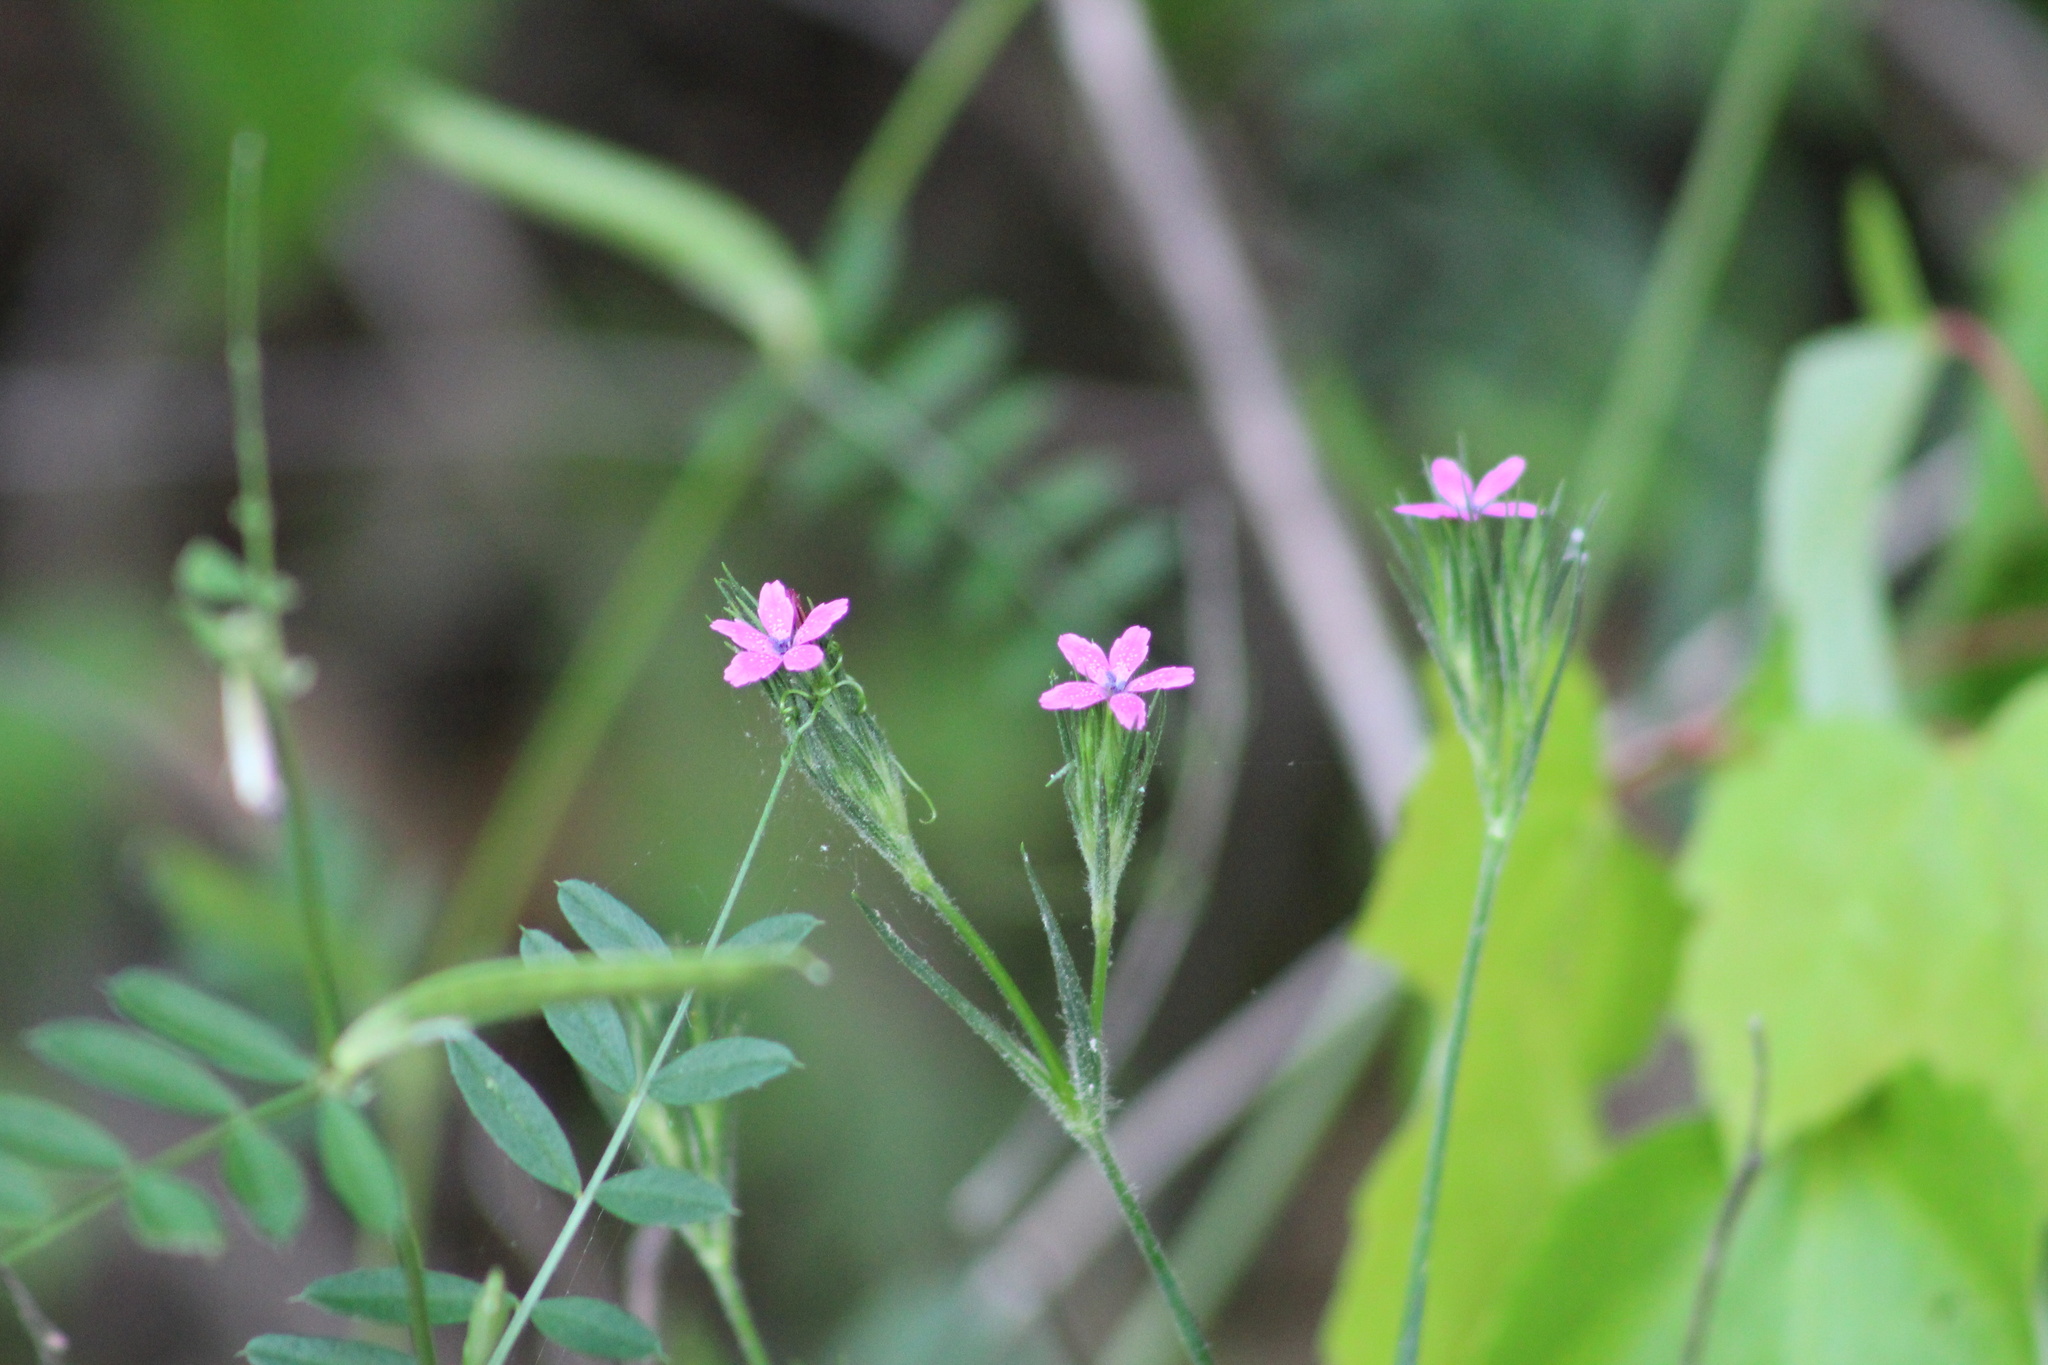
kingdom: Plantae
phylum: Tracheophyta
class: Magnoliopsida
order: Caryophyllales
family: Caryophyllaceae
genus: Dianthus
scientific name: Dianthus armeria
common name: Deptford pink
